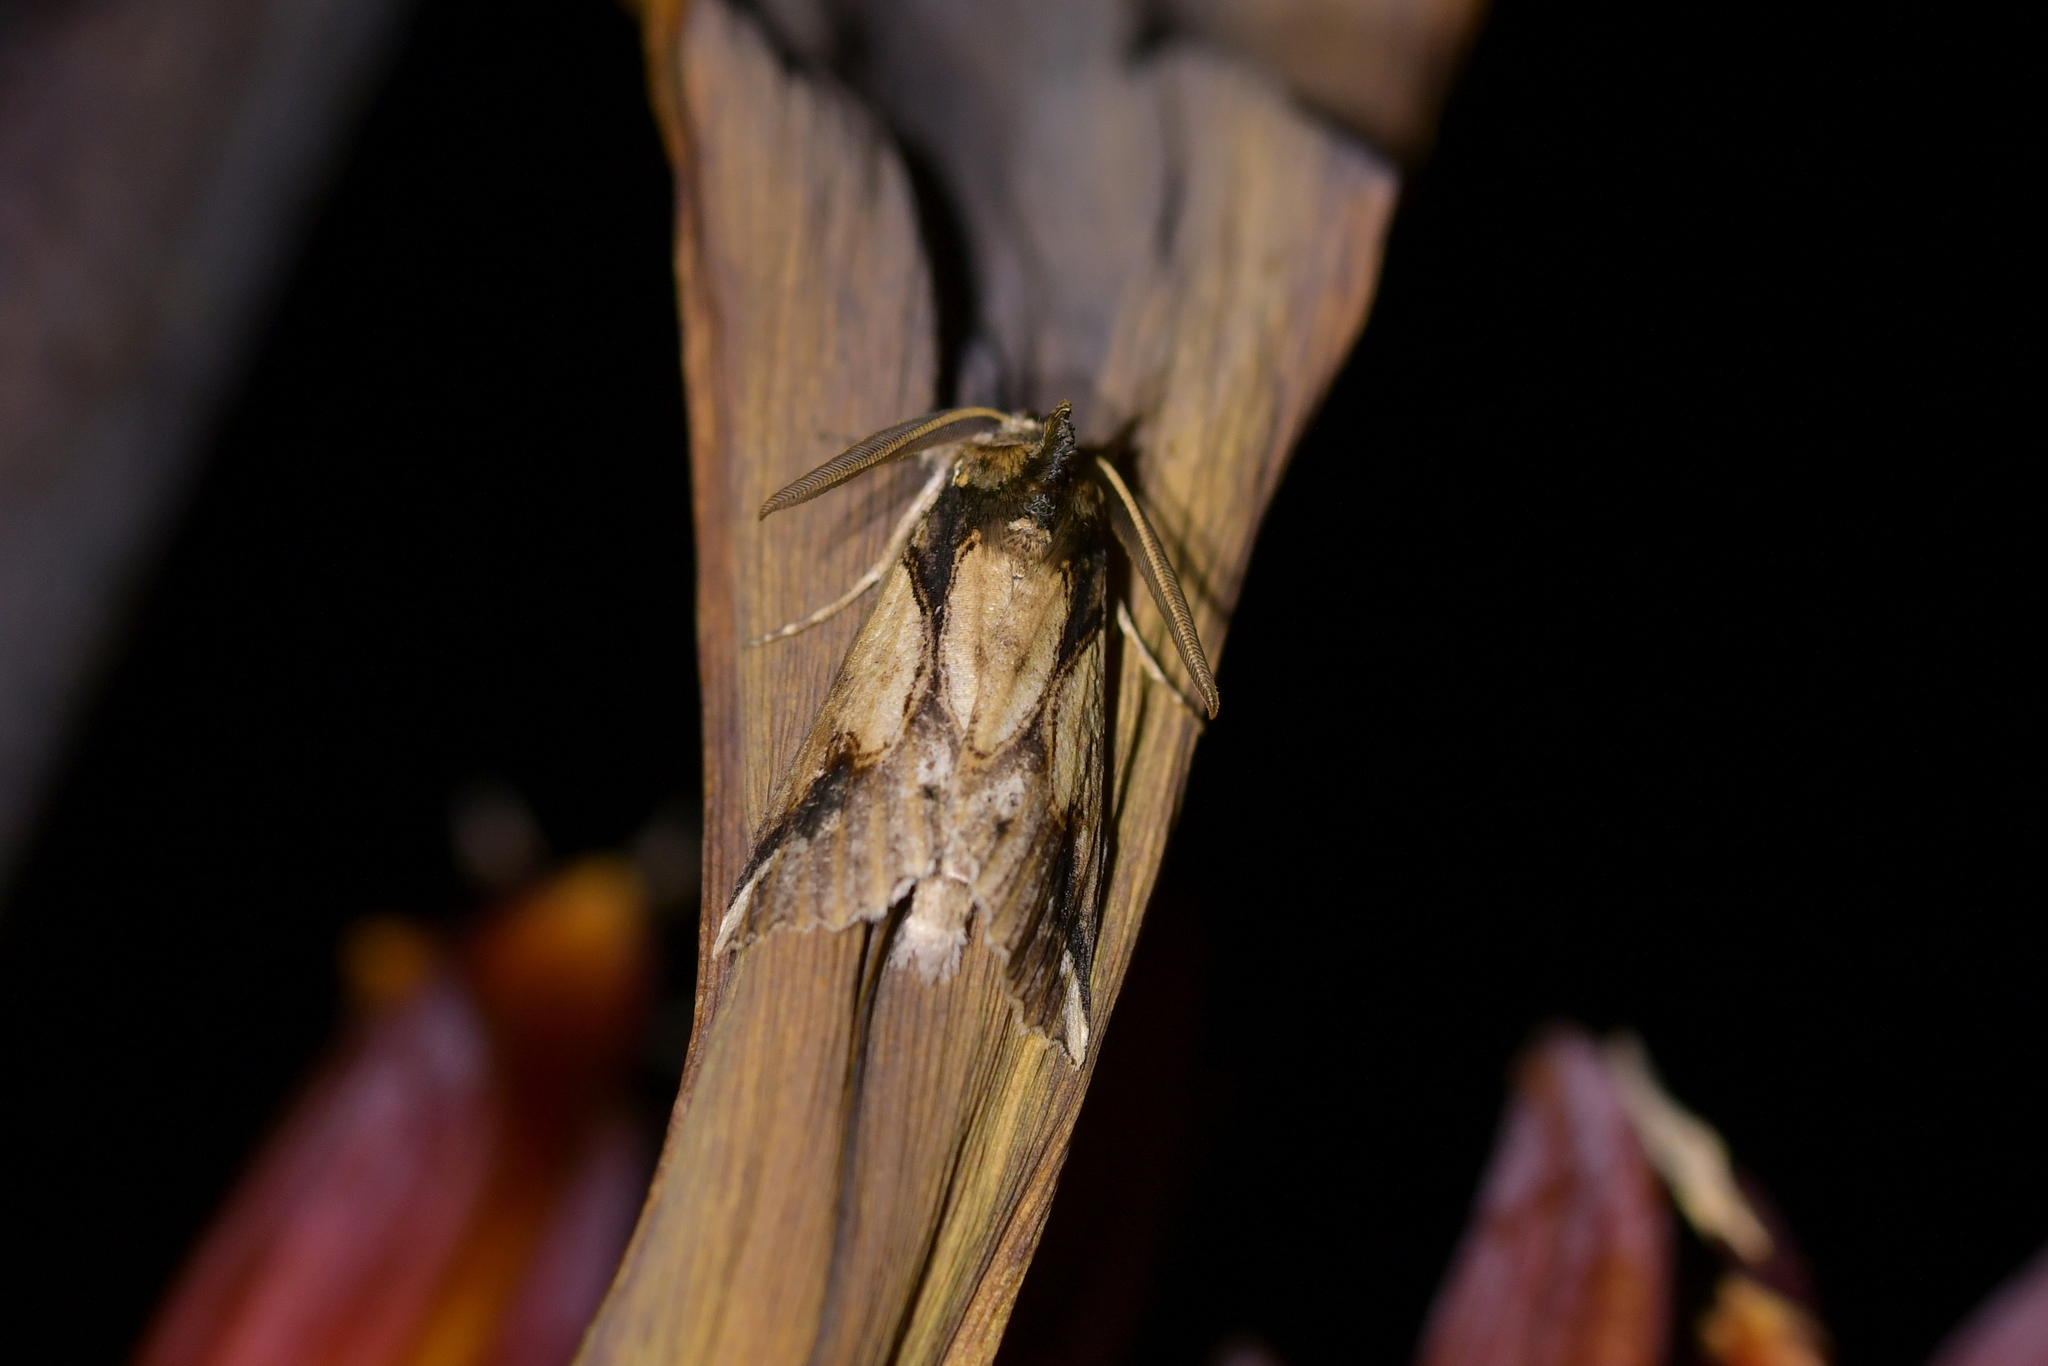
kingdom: Animalia
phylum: Arthropoda
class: Insecta
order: Lepidoptera
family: Geometridae
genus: Declana
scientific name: Declana
